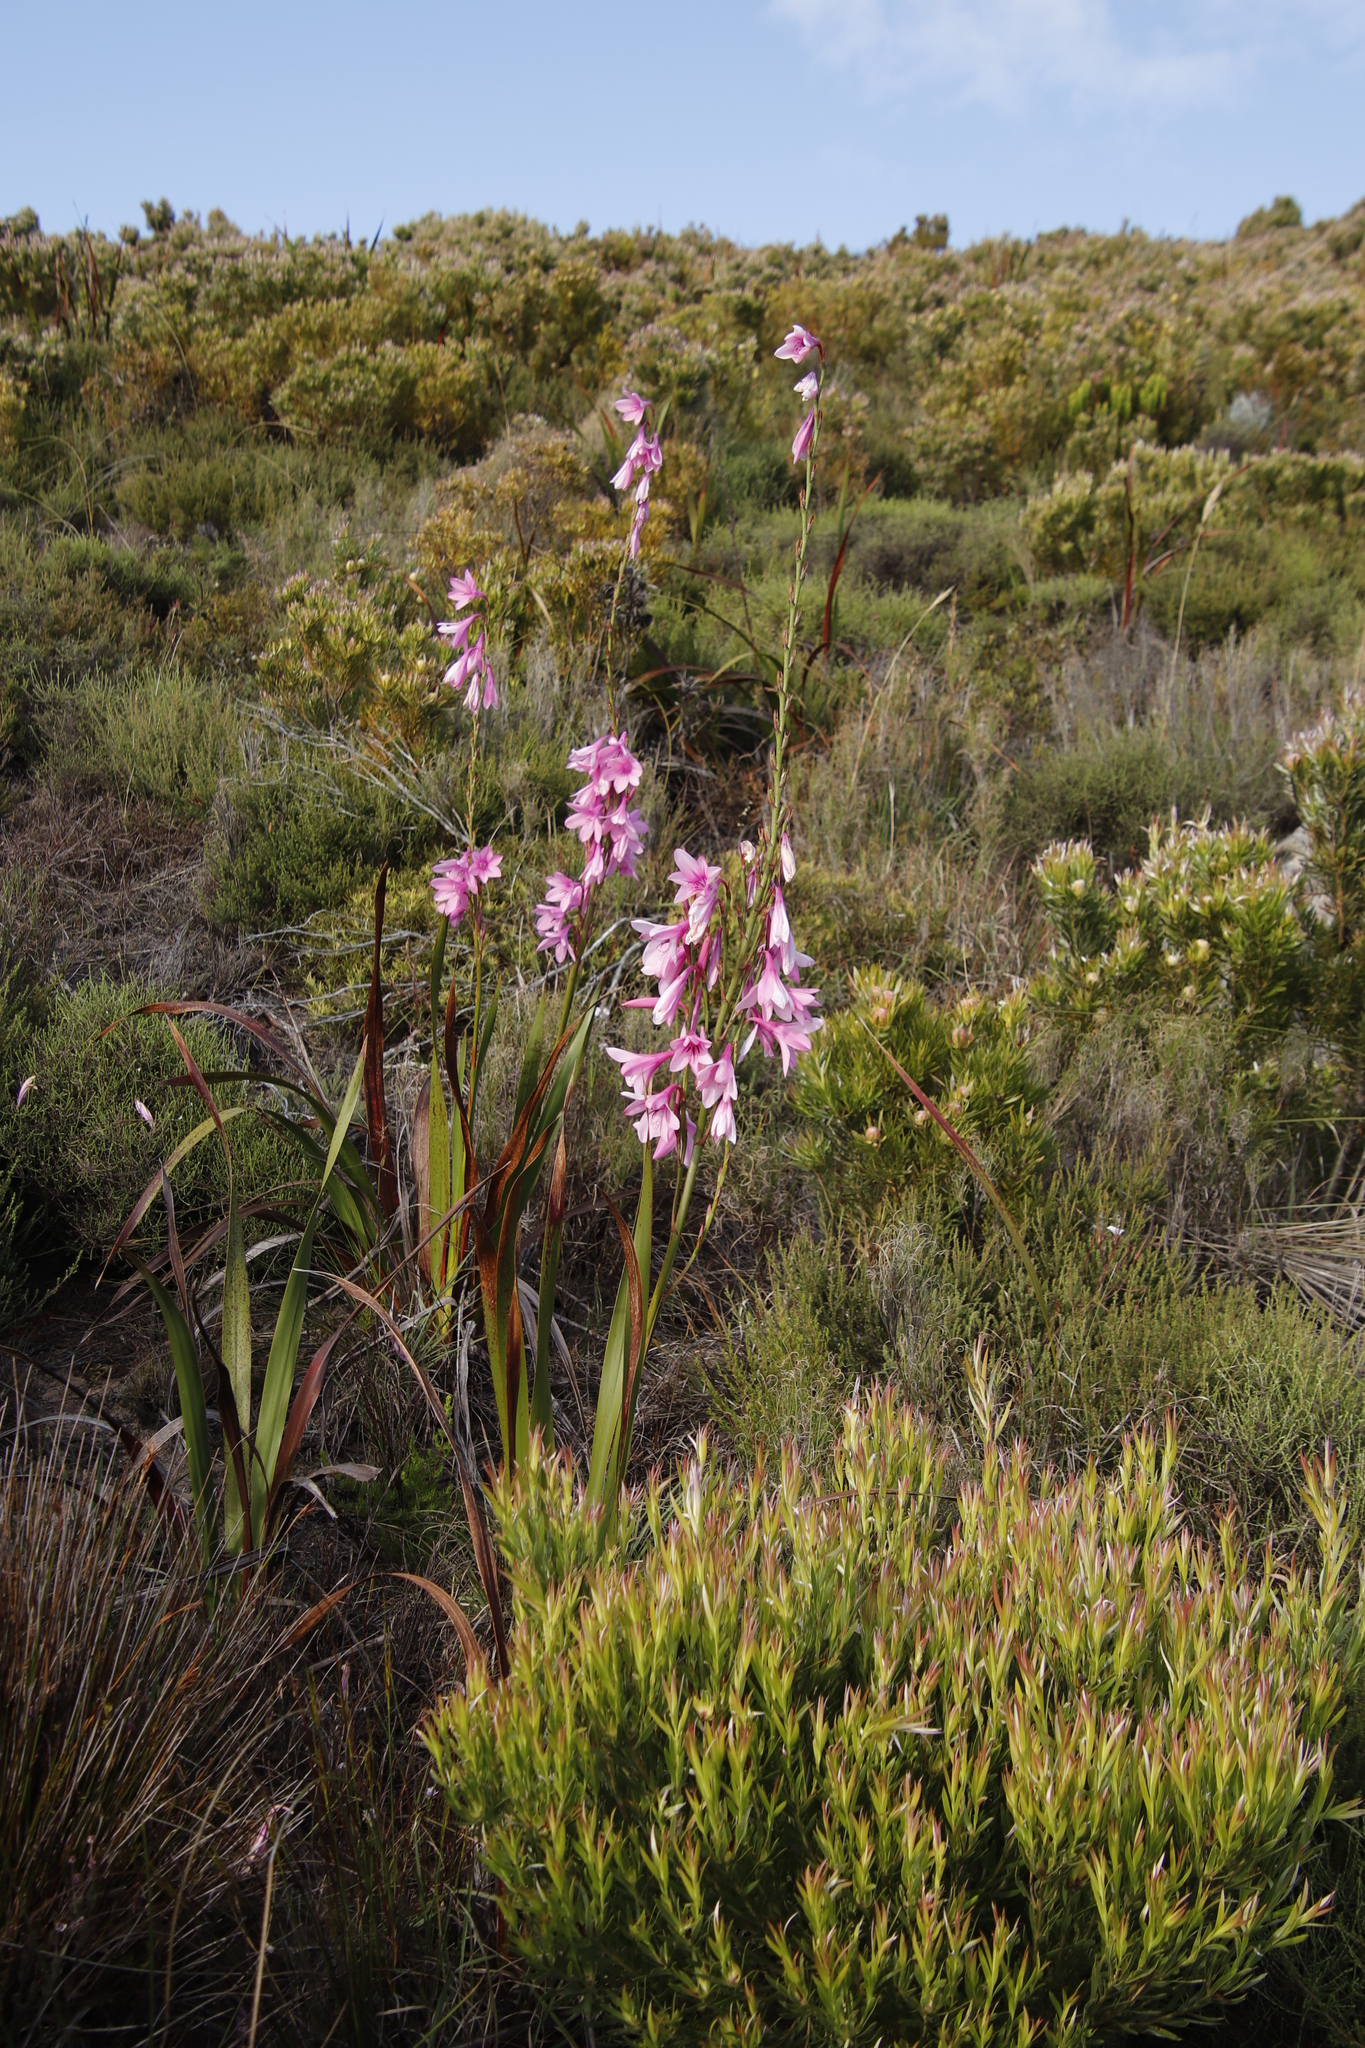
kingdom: Plantae
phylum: Tracheophyta
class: Liliopsida
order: Asparagales
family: Iridaceae
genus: Watsonia
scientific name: Watsonia borbonica
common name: Bugle-lily
